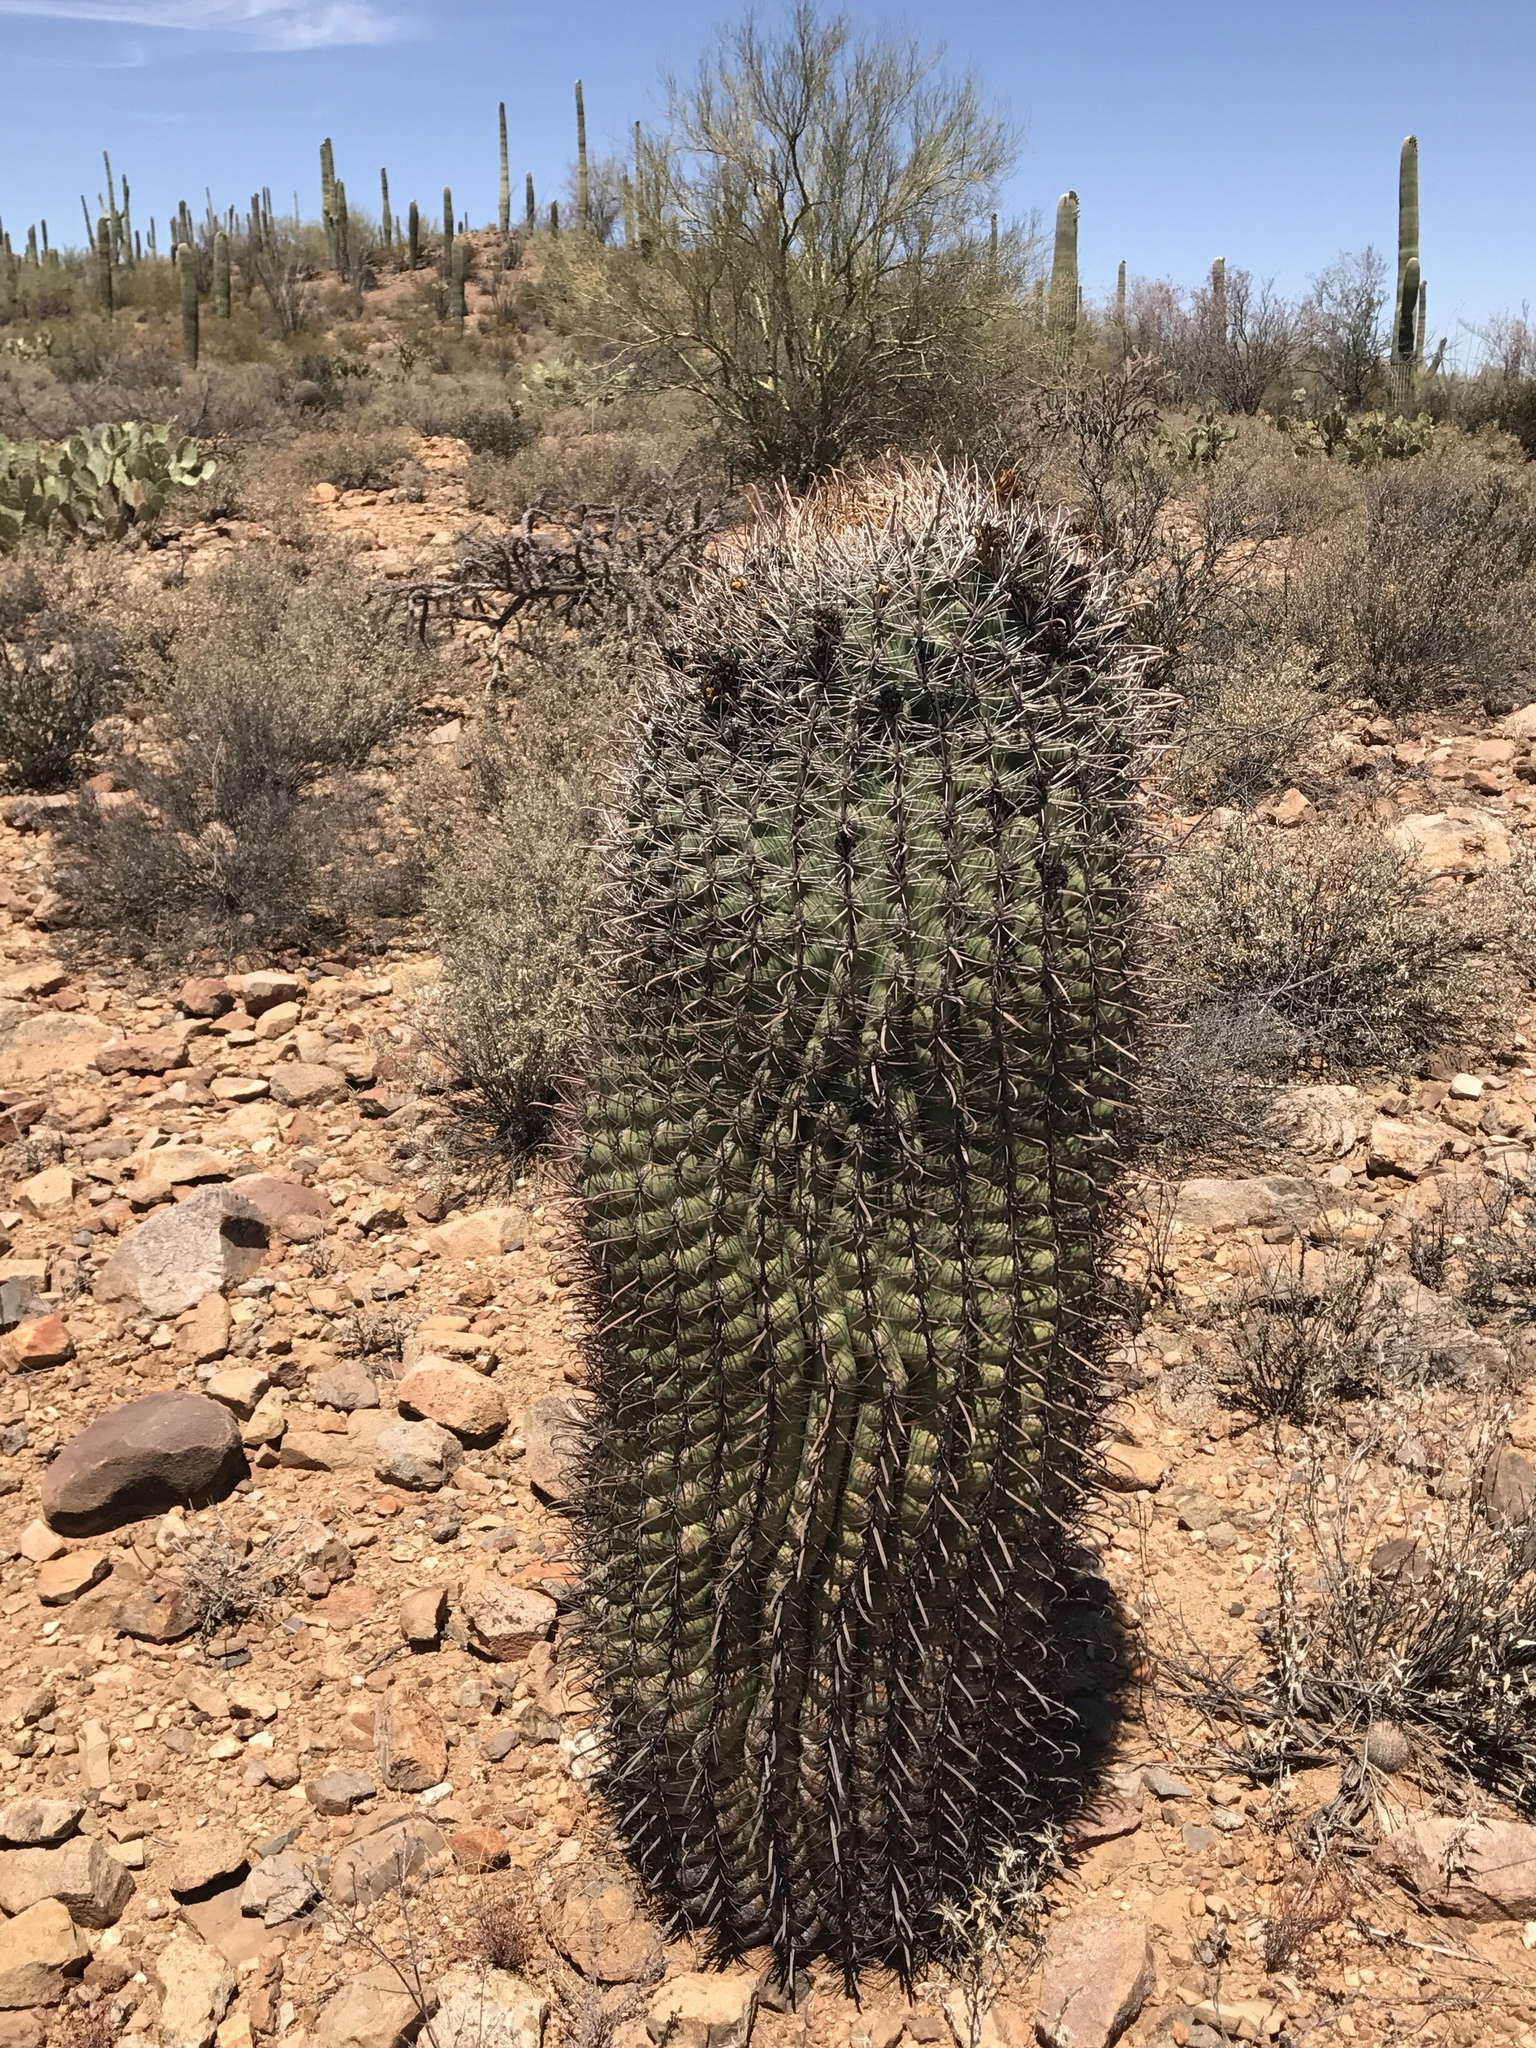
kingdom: Plantae
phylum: Tracheophyta
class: Magnoliopsida
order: Caryophyllales
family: Cactaceae
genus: Ferocactus
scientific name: Ferocactus wislizeni
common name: Candy barrel cactus
